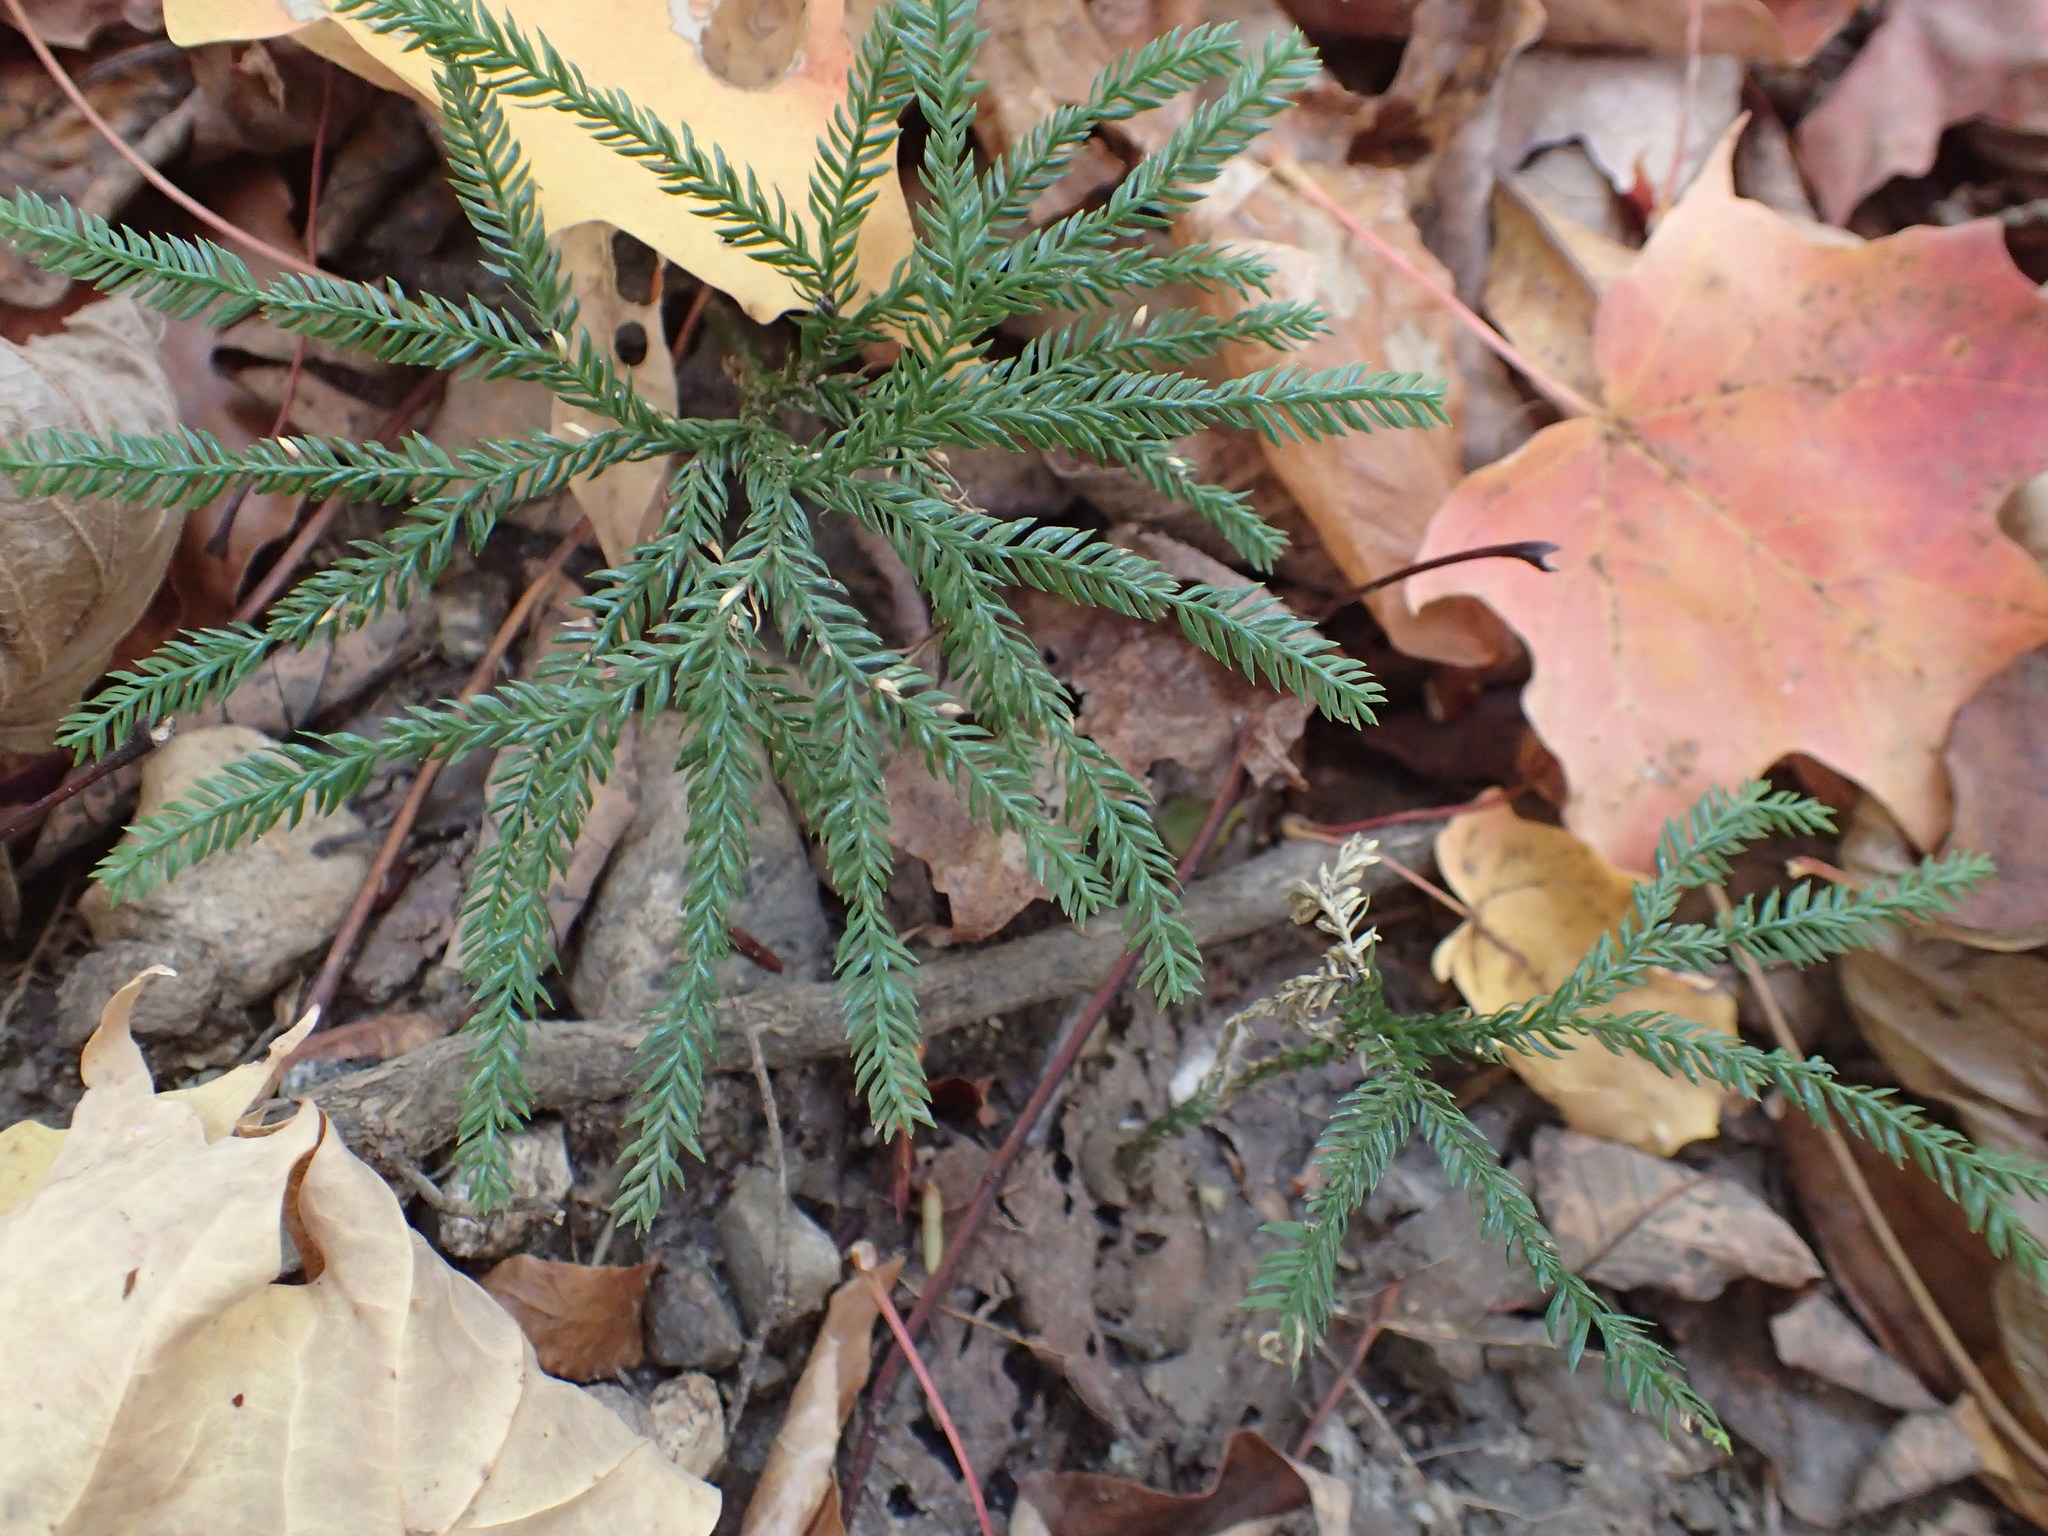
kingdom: Plantae
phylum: Tracheophyta
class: Lycopodiopsida
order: Lycopodiales
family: Lycopodiaceae
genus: Dendrolycopodium
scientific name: Dendrolycopodium obscurum
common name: Common ground-pine
